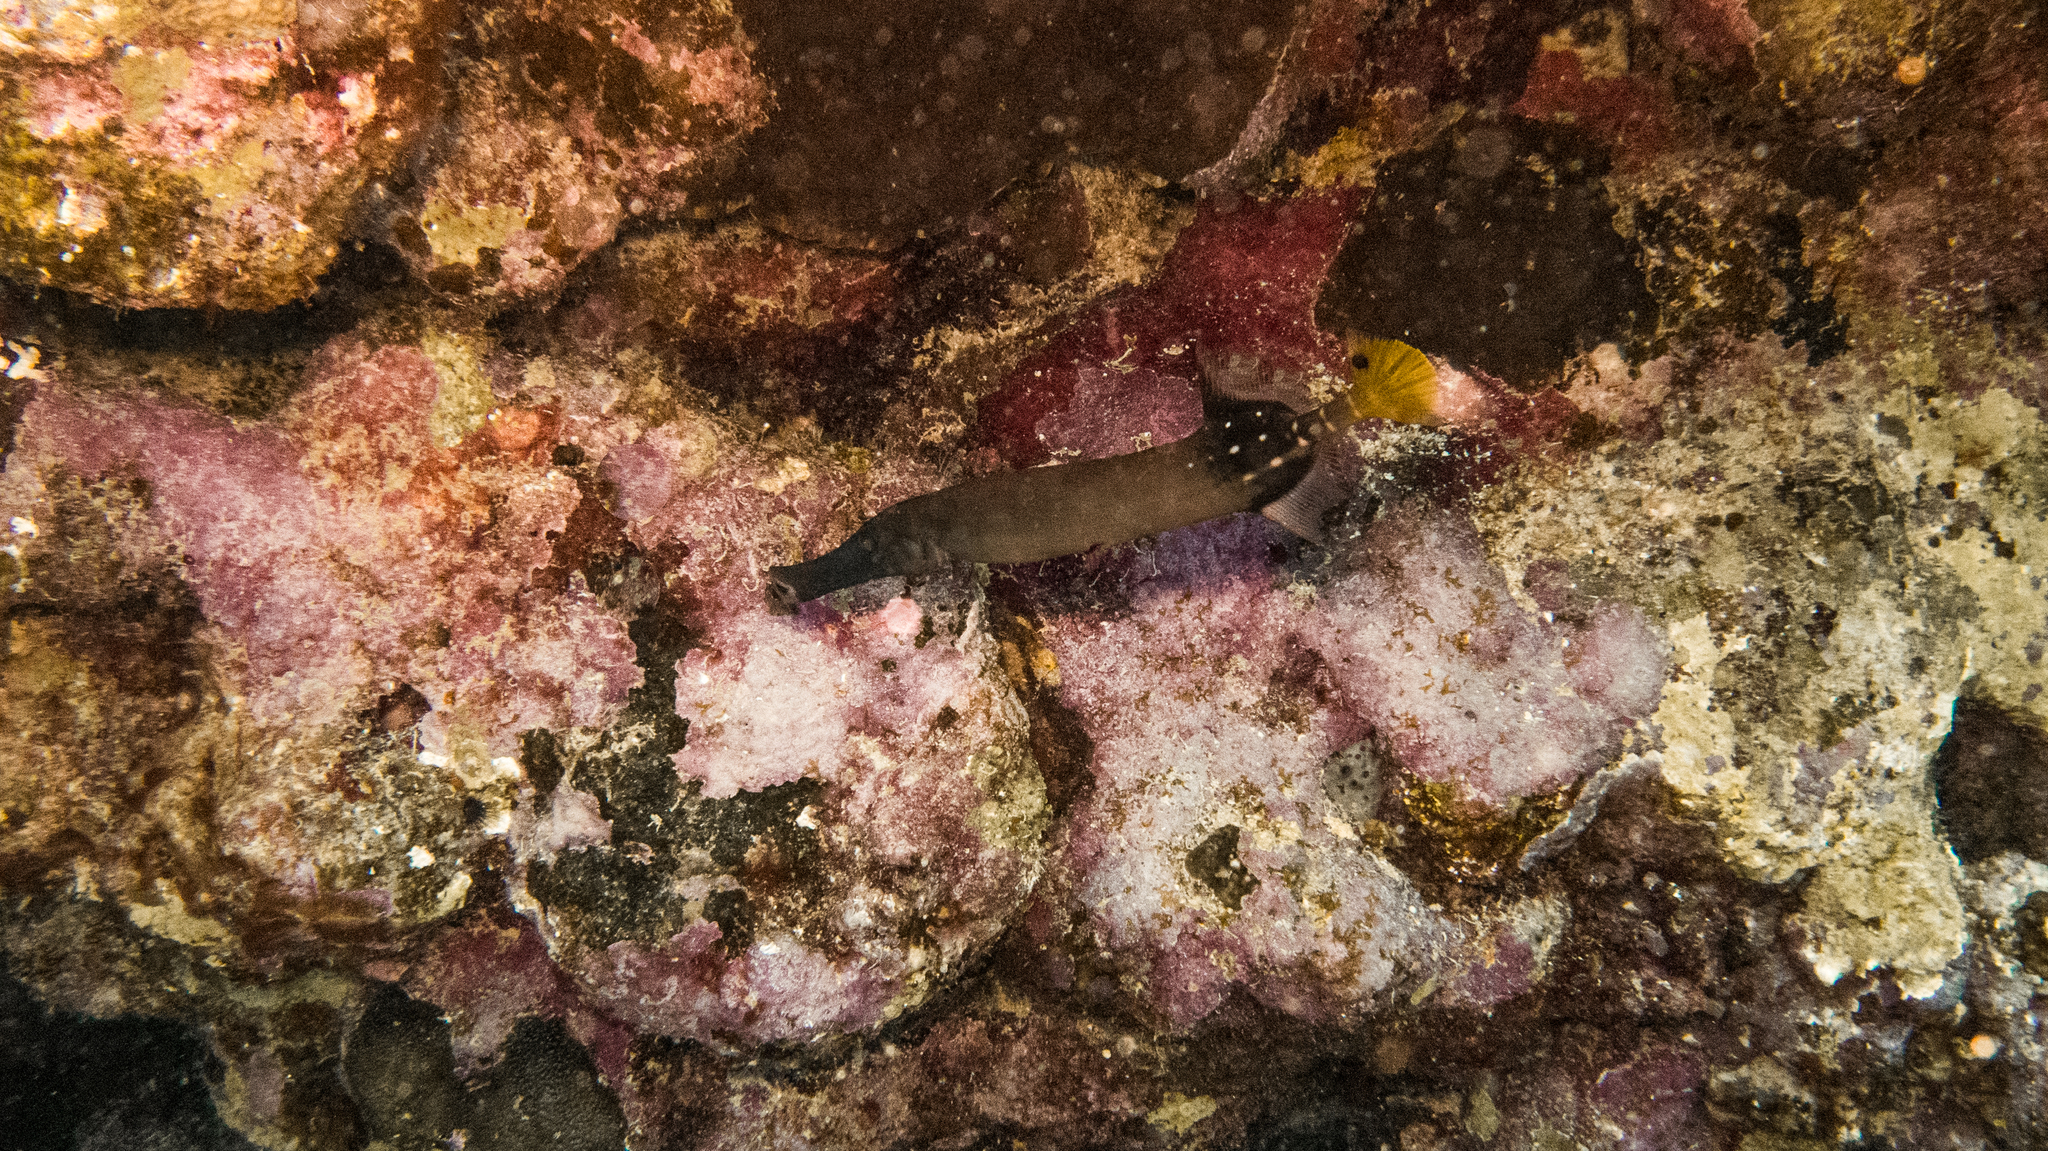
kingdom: Animalia
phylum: Chordata
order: Syngnathiformes
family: Aulostomidae
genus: Aulostomus
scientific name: Aulostomus chinensis
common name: Chinese trumpetfish
